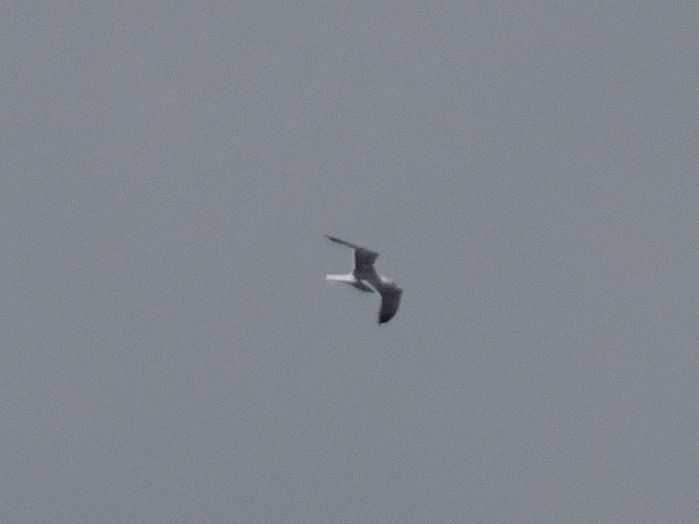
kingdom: Animalia
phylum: Chordata
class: Aves
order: Charadriiformes
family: Laridae
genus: Larus
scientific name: Larus fuscus
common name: Lesser black-backed gull
